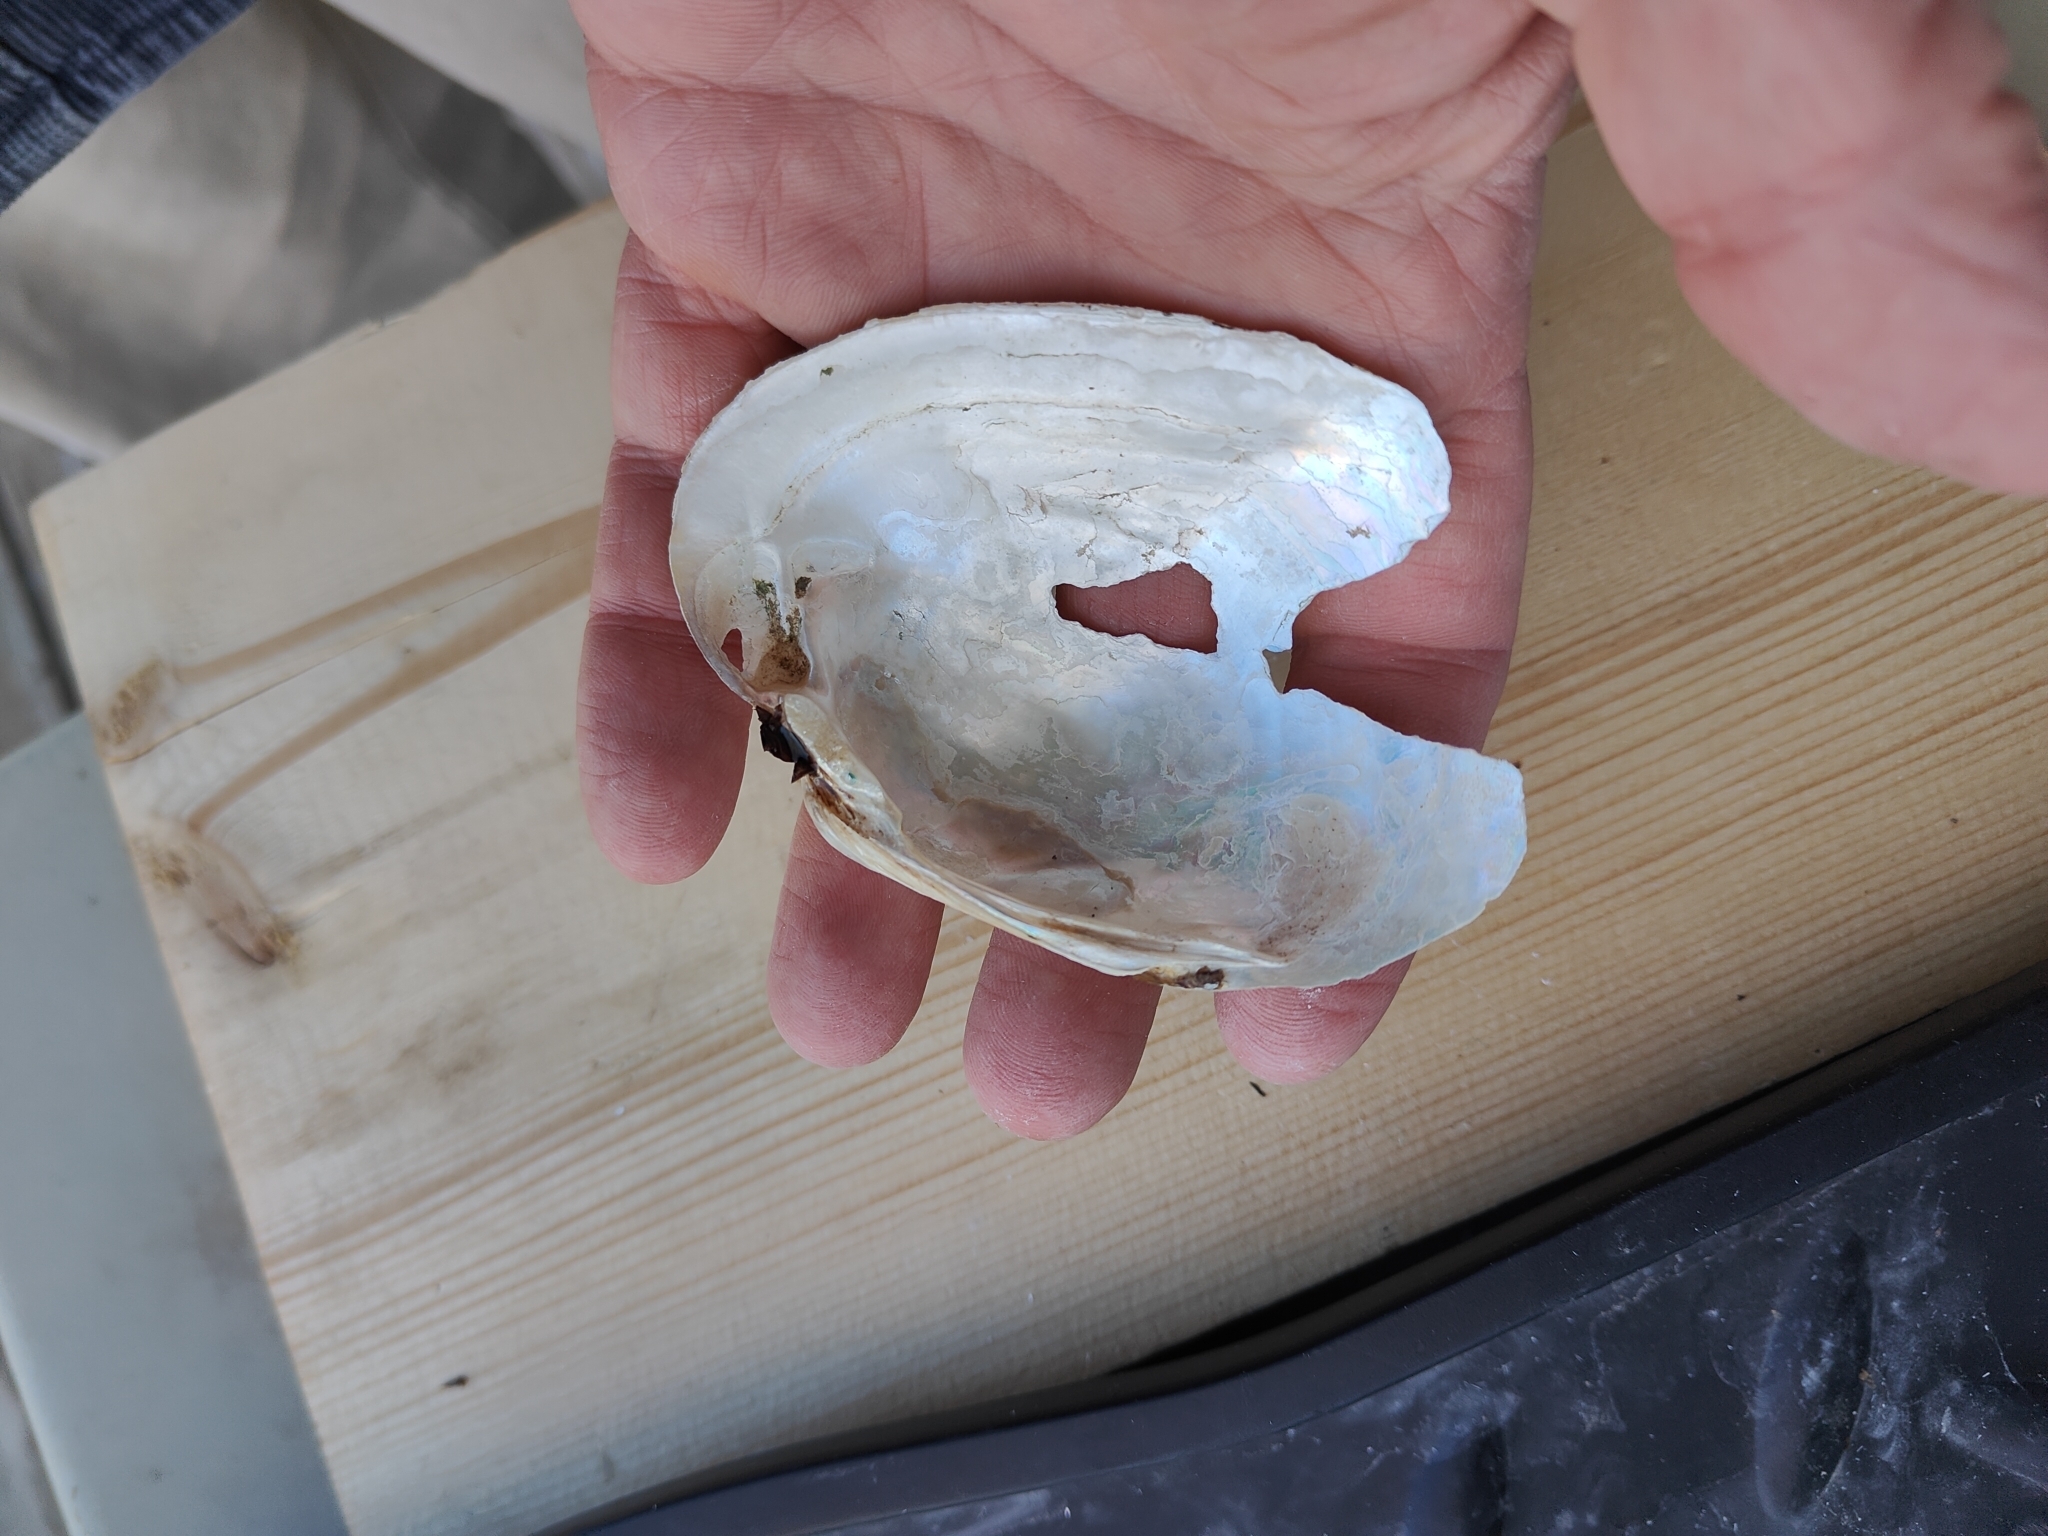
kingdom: Animalia
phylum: Mollusca
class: Bivalvia
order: Unionida
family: Unionidae
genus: Lampsilis
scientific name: Lampsilis cardium
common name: Plain pocketbook
